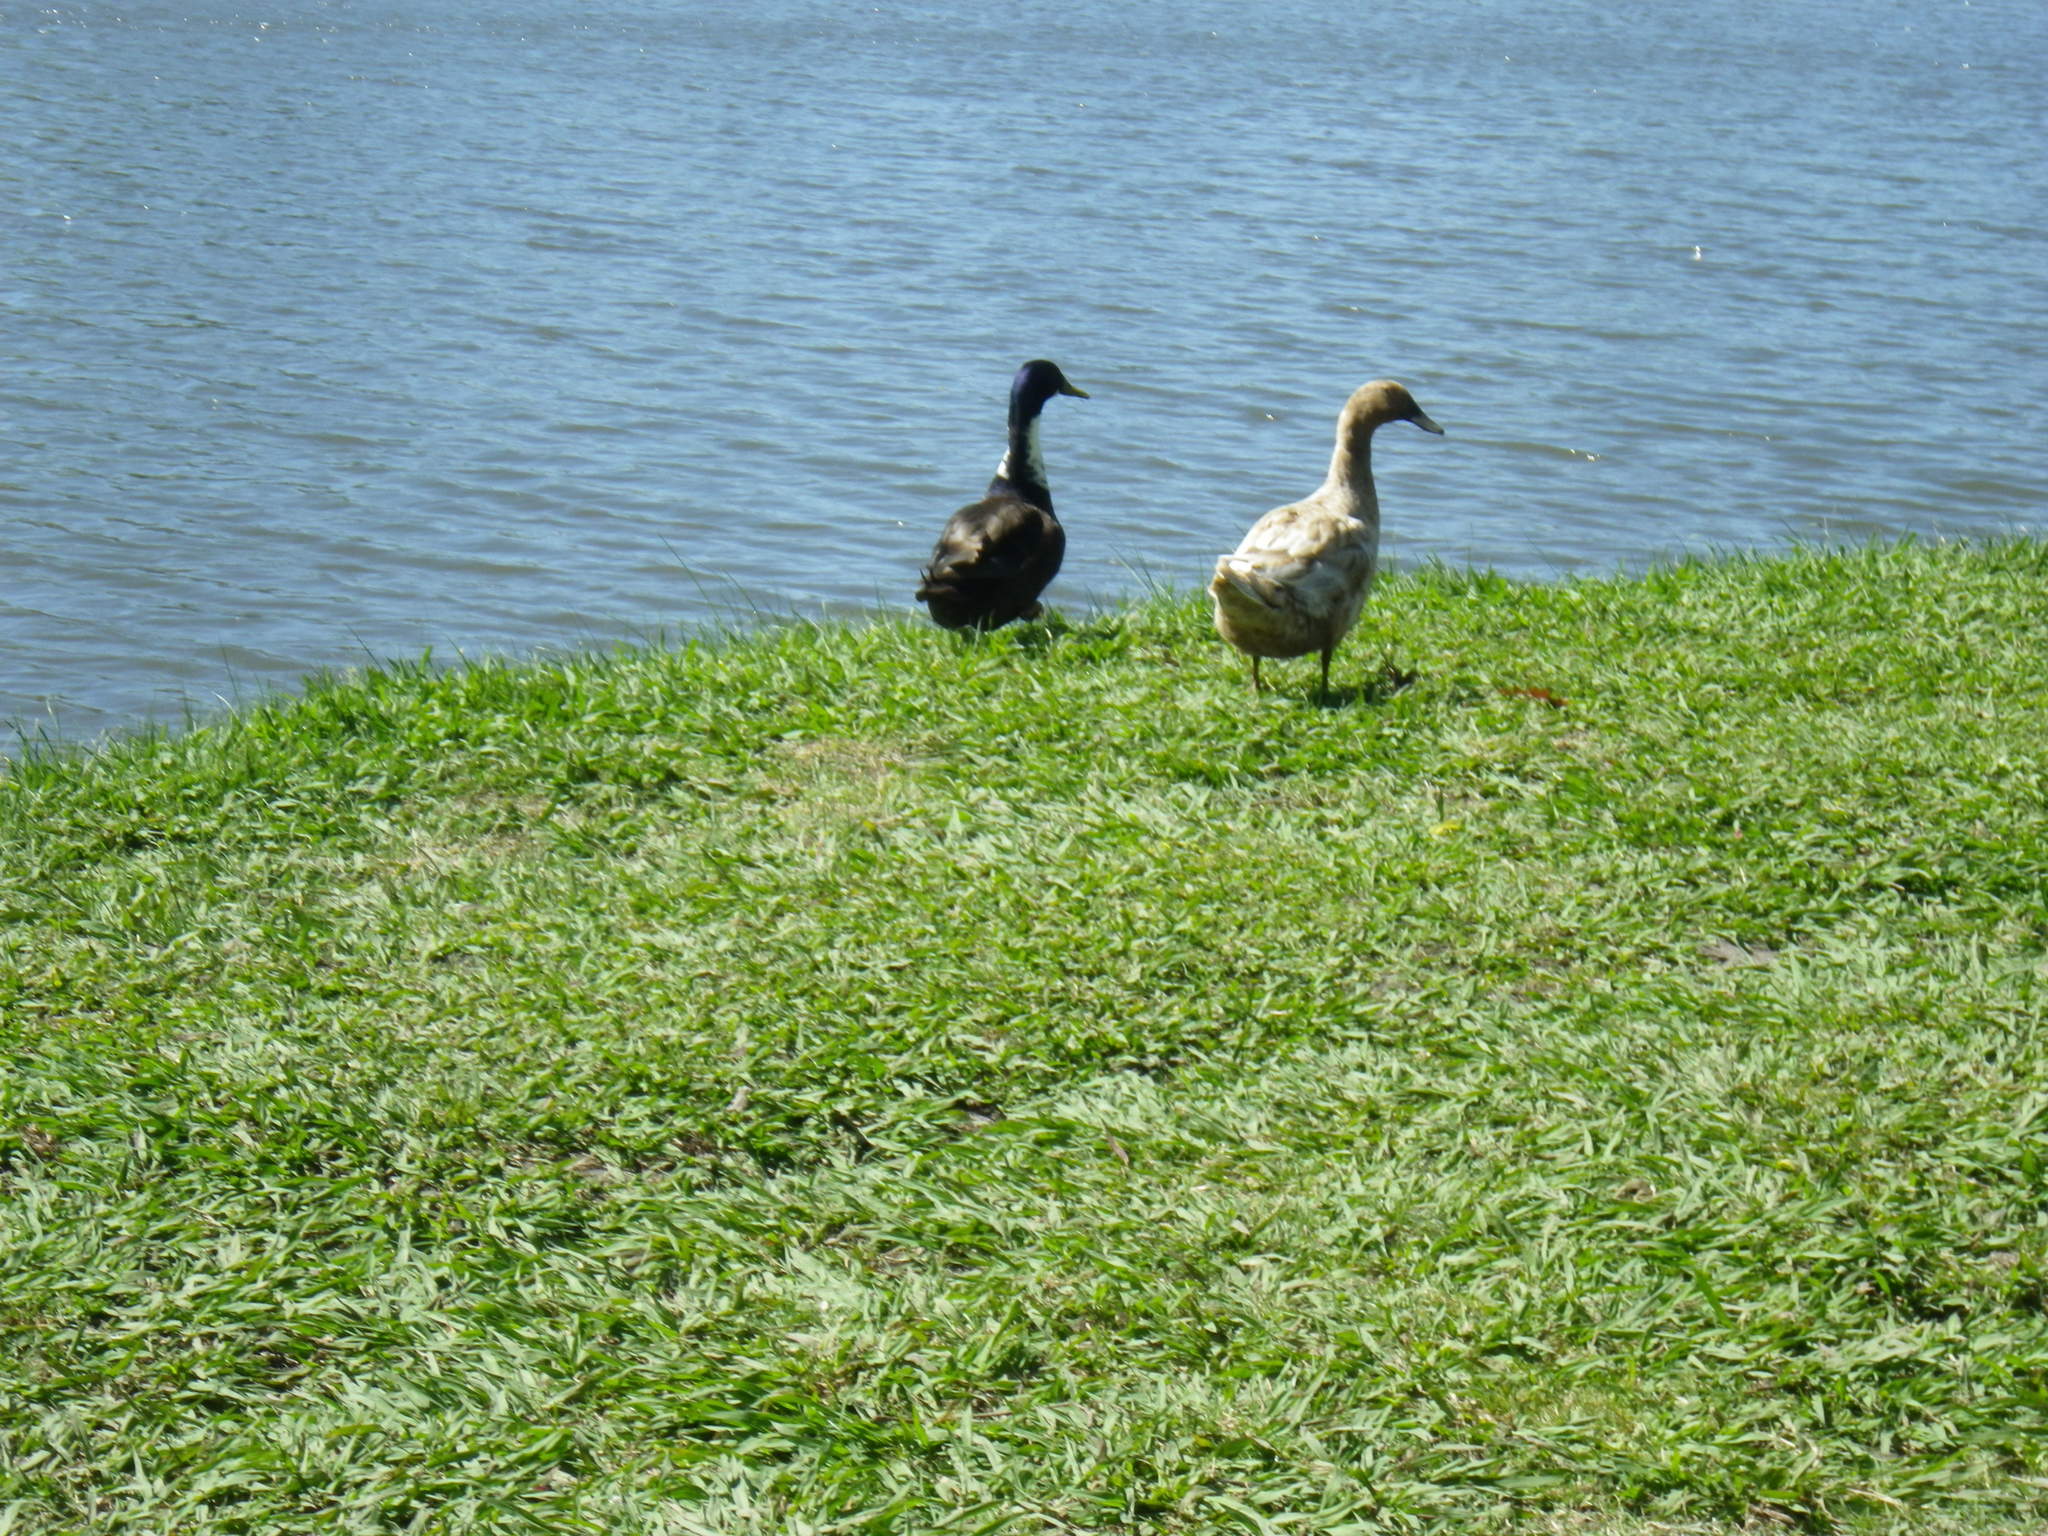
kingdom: Animalia
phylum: Chordata
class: Aves
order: Anseriformes
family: Anatidae
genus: Anas
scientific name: Anas platyrhynchos
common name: Mallard
